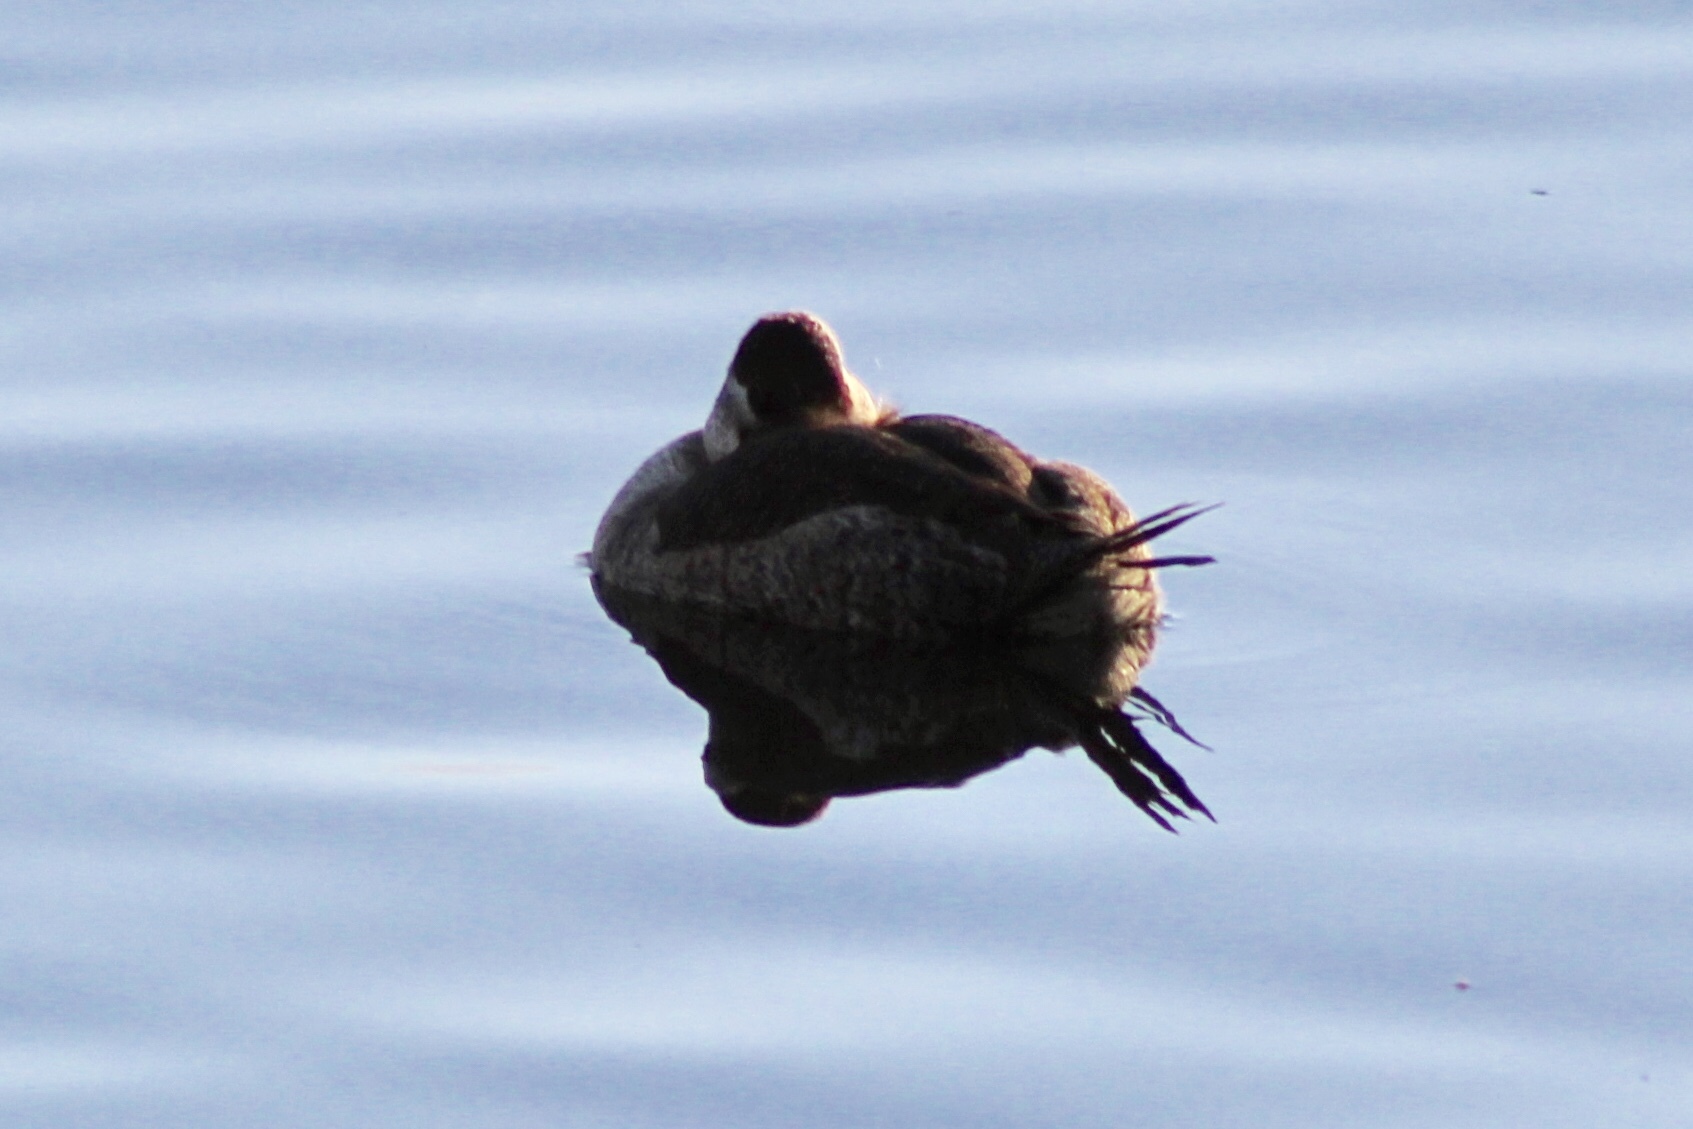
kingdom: Animalia
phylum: Chordata
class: Aves
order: Anseriformes
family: Anatidae
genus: Oxyura
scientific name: Oxyura jamaicensis
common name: Ruddy duck
